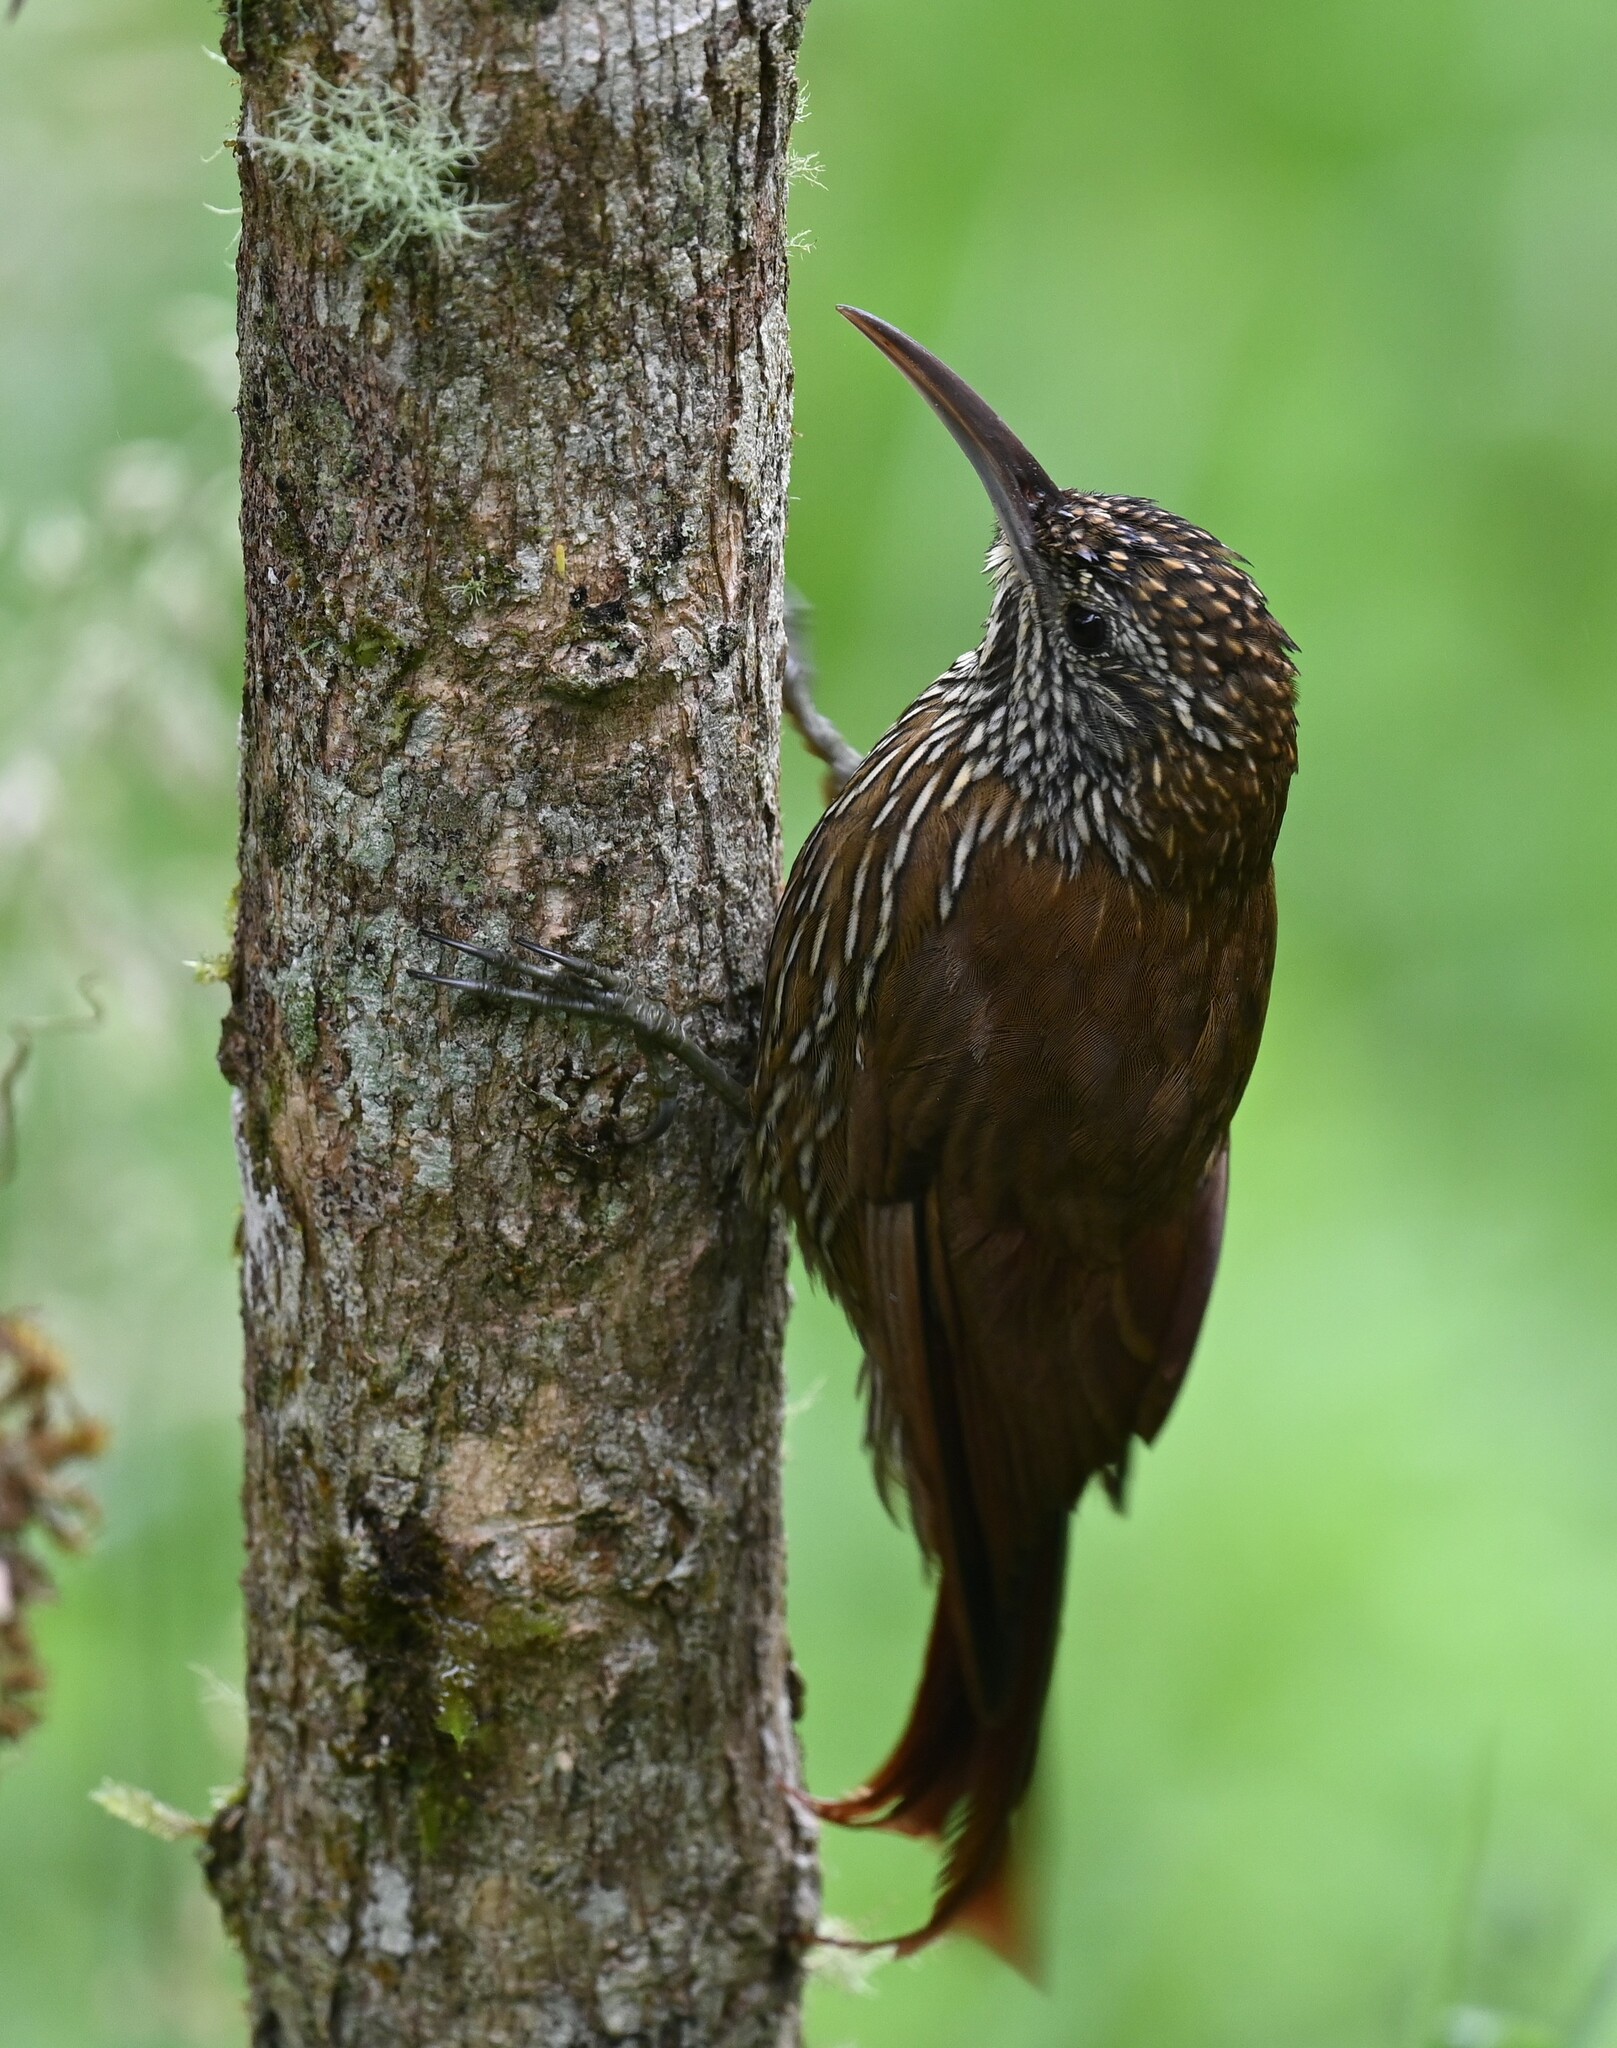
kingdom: Animalia
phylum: Chordata
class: Aves
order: Passeriformes
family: Furnariidae
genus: Lepidocolaptes
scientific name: Lepidocolaptes lacrymiger
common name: Montane woodcreeper
